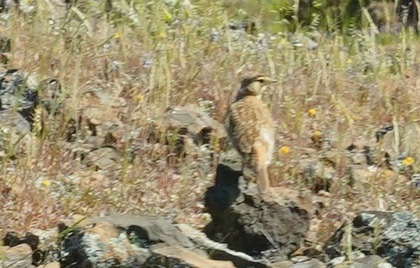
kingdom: Animalia
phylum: Chordata
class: Aves
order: Passeriformes
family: Alaudidae
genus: Eremophila
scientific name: Eremophila alpestris
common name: Horned lark
